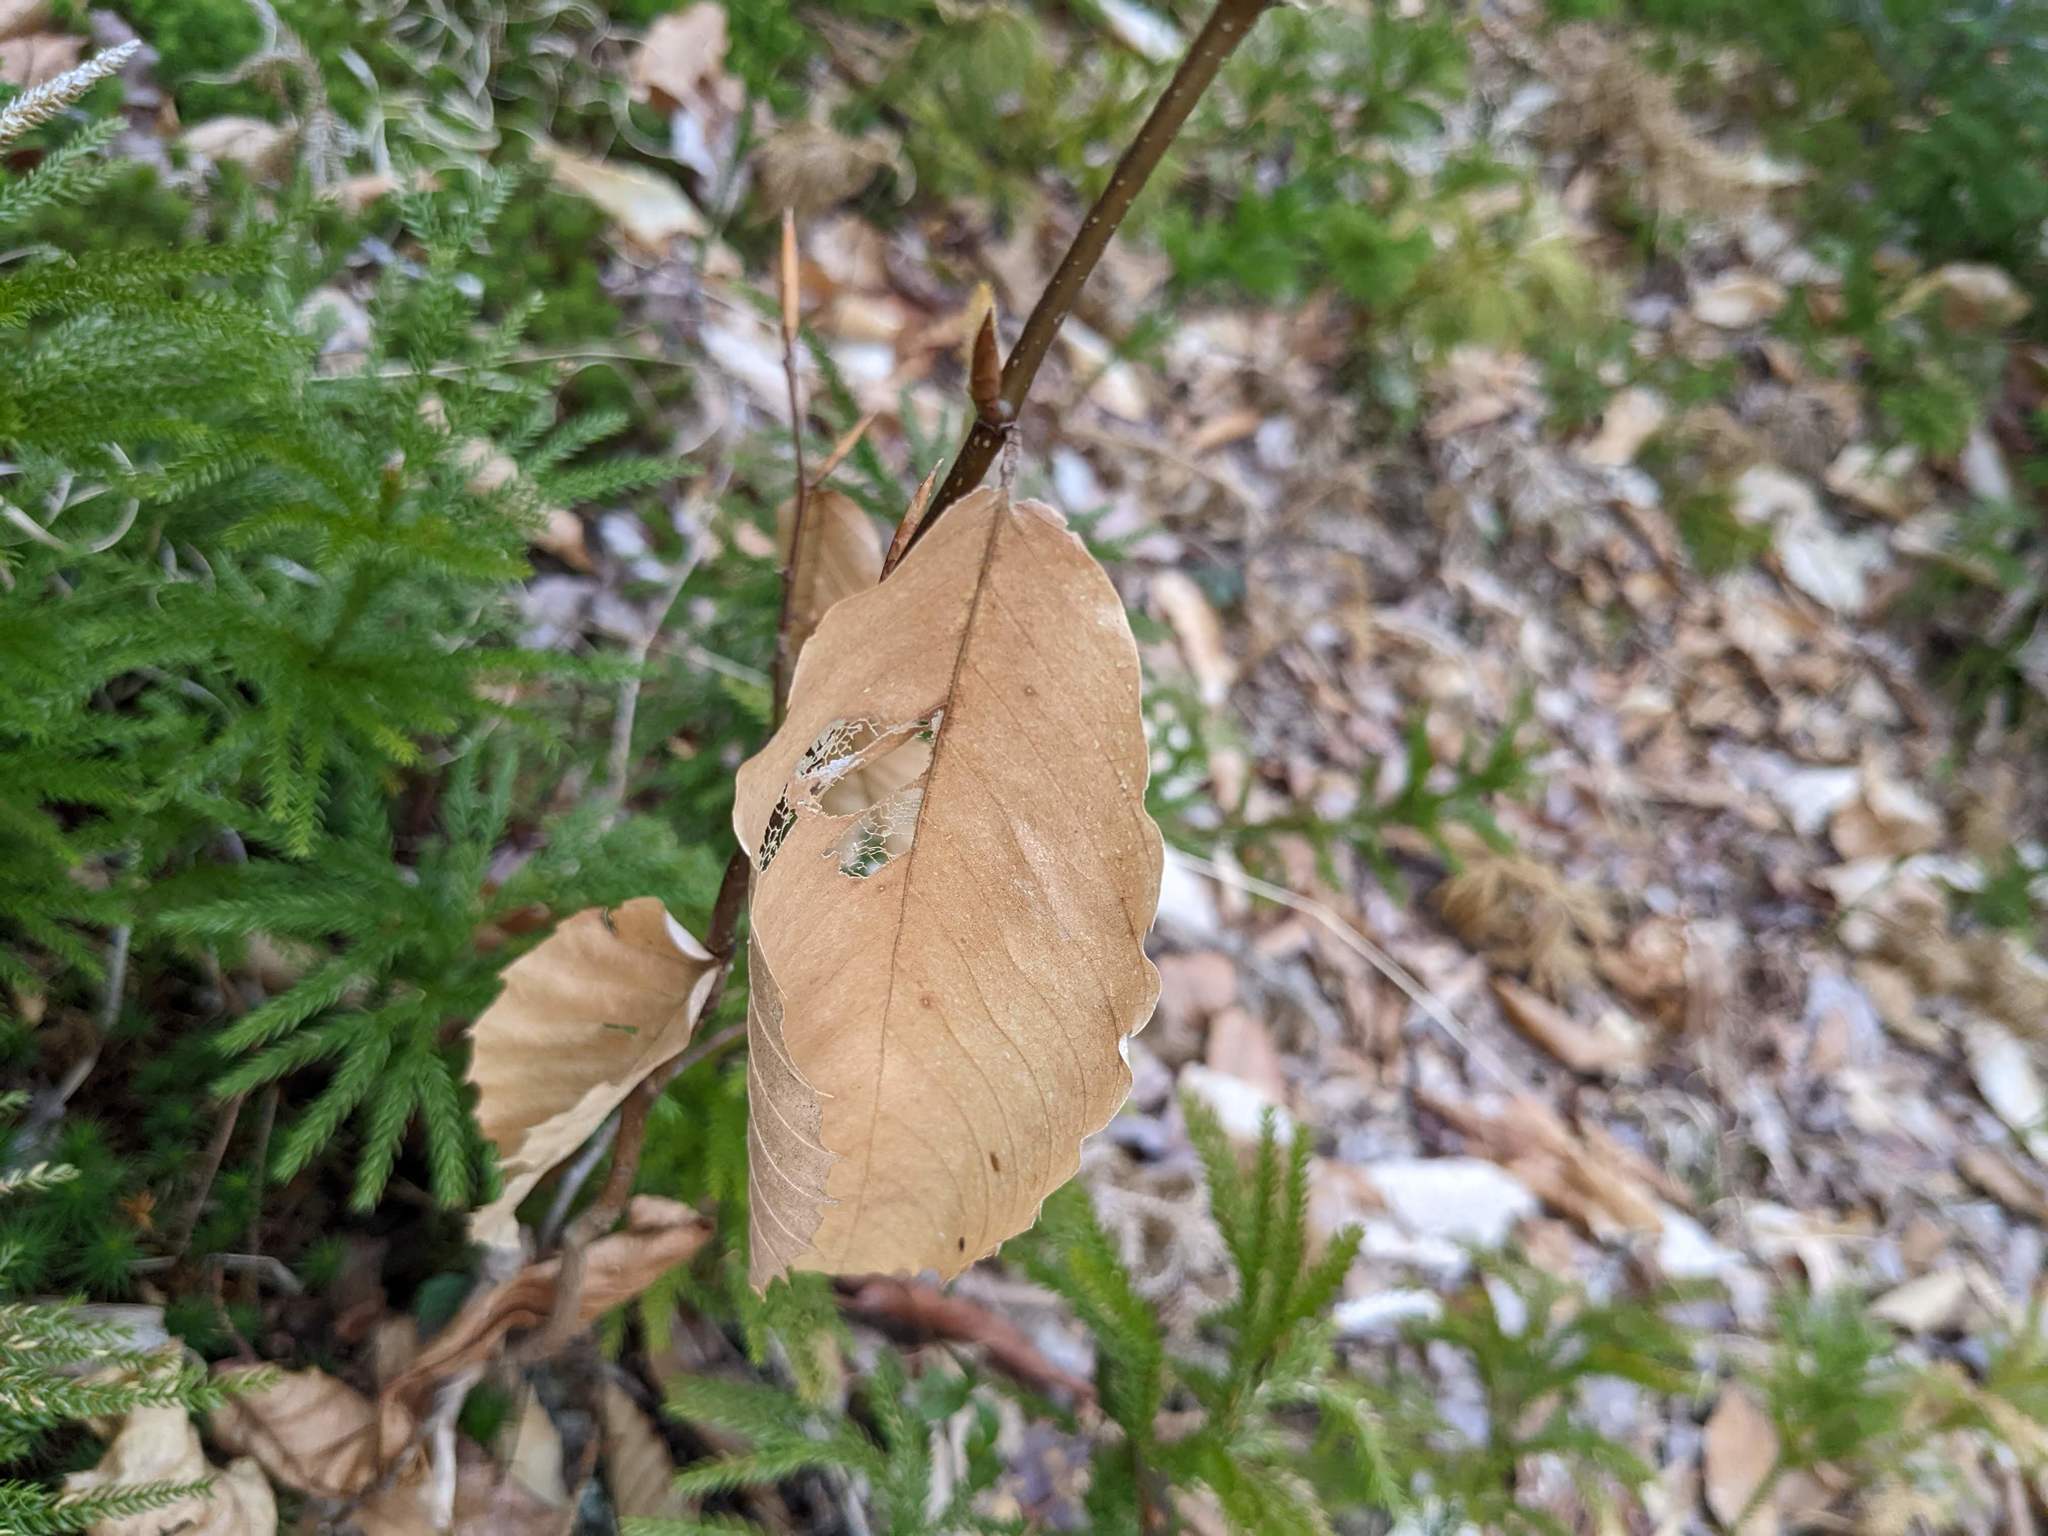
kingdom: Plantae
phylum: Tracheophyta
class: Magnoliopsida
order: Fagales
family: Fagaceae
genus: Fagus
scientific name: Fagus grandifolia
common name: American beech
